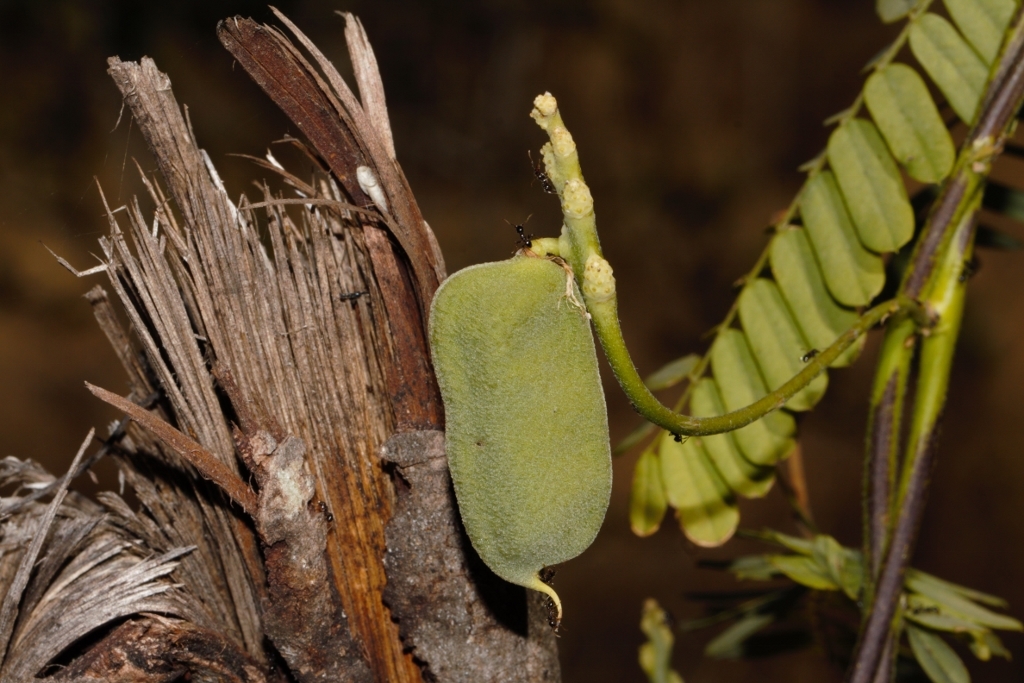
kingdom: Plantae
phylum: Tracheophyta
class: Magnoliopsida
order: Fabales
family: Fabaceae
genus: Abrus
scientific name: Abrus precatorius
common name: Rosarypea
